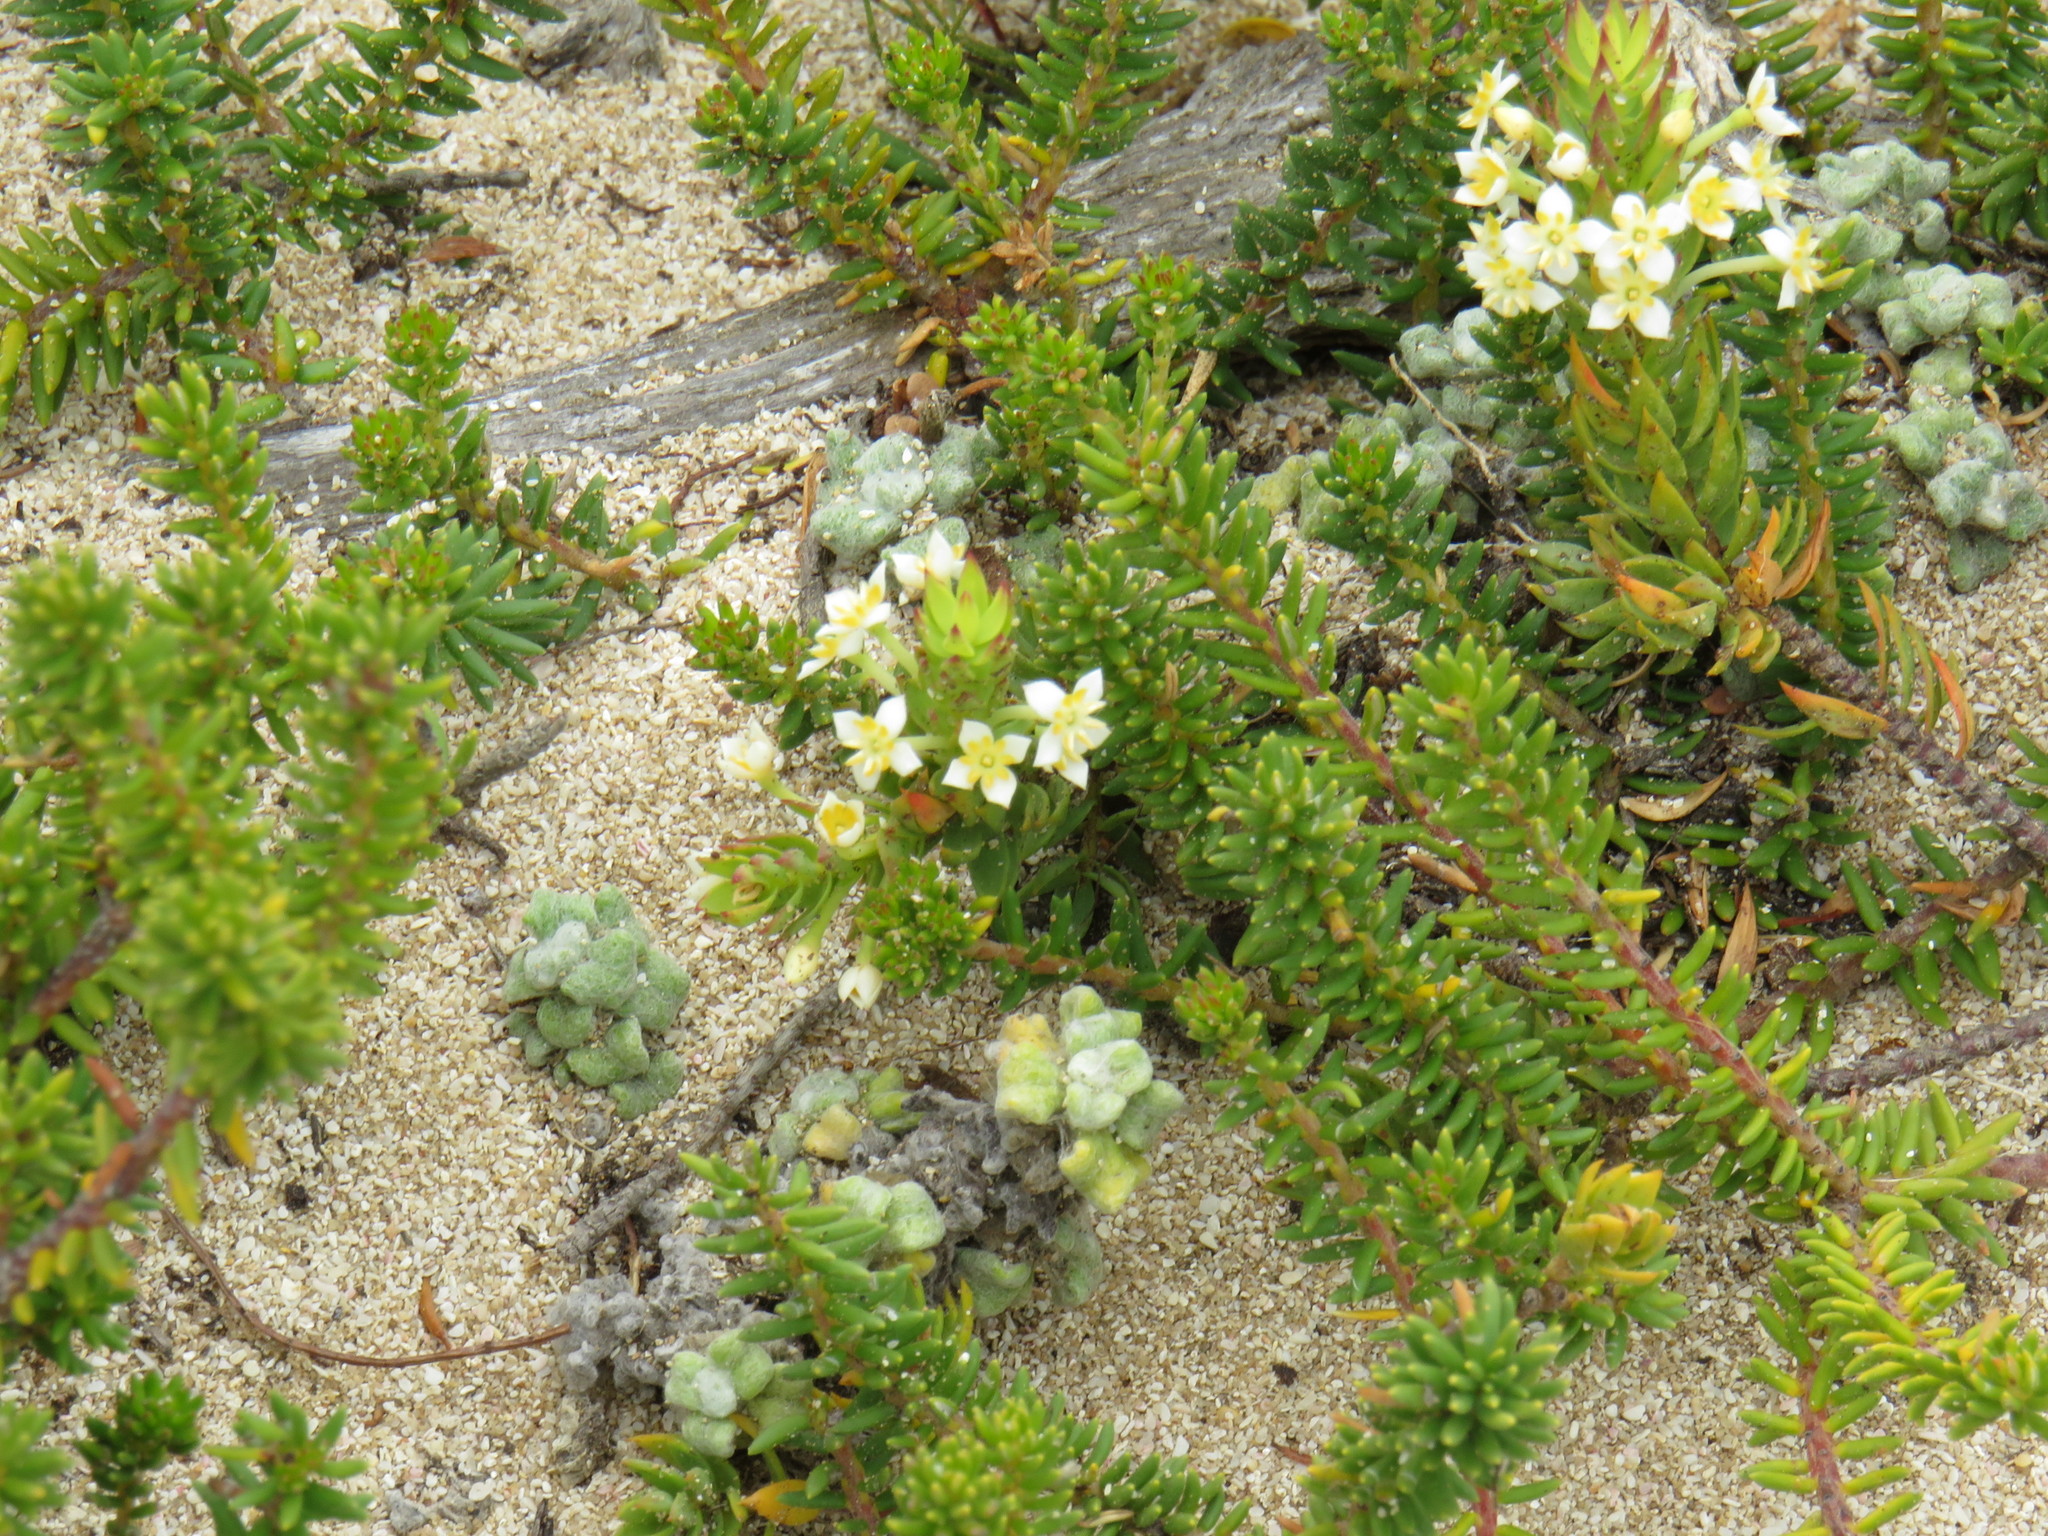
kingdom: Plantae
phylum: Tracheophyta
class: Magnoliopsida
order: Malvales
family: Thymelaeaceae
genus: Struthiola
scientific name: Struthiola salteri
